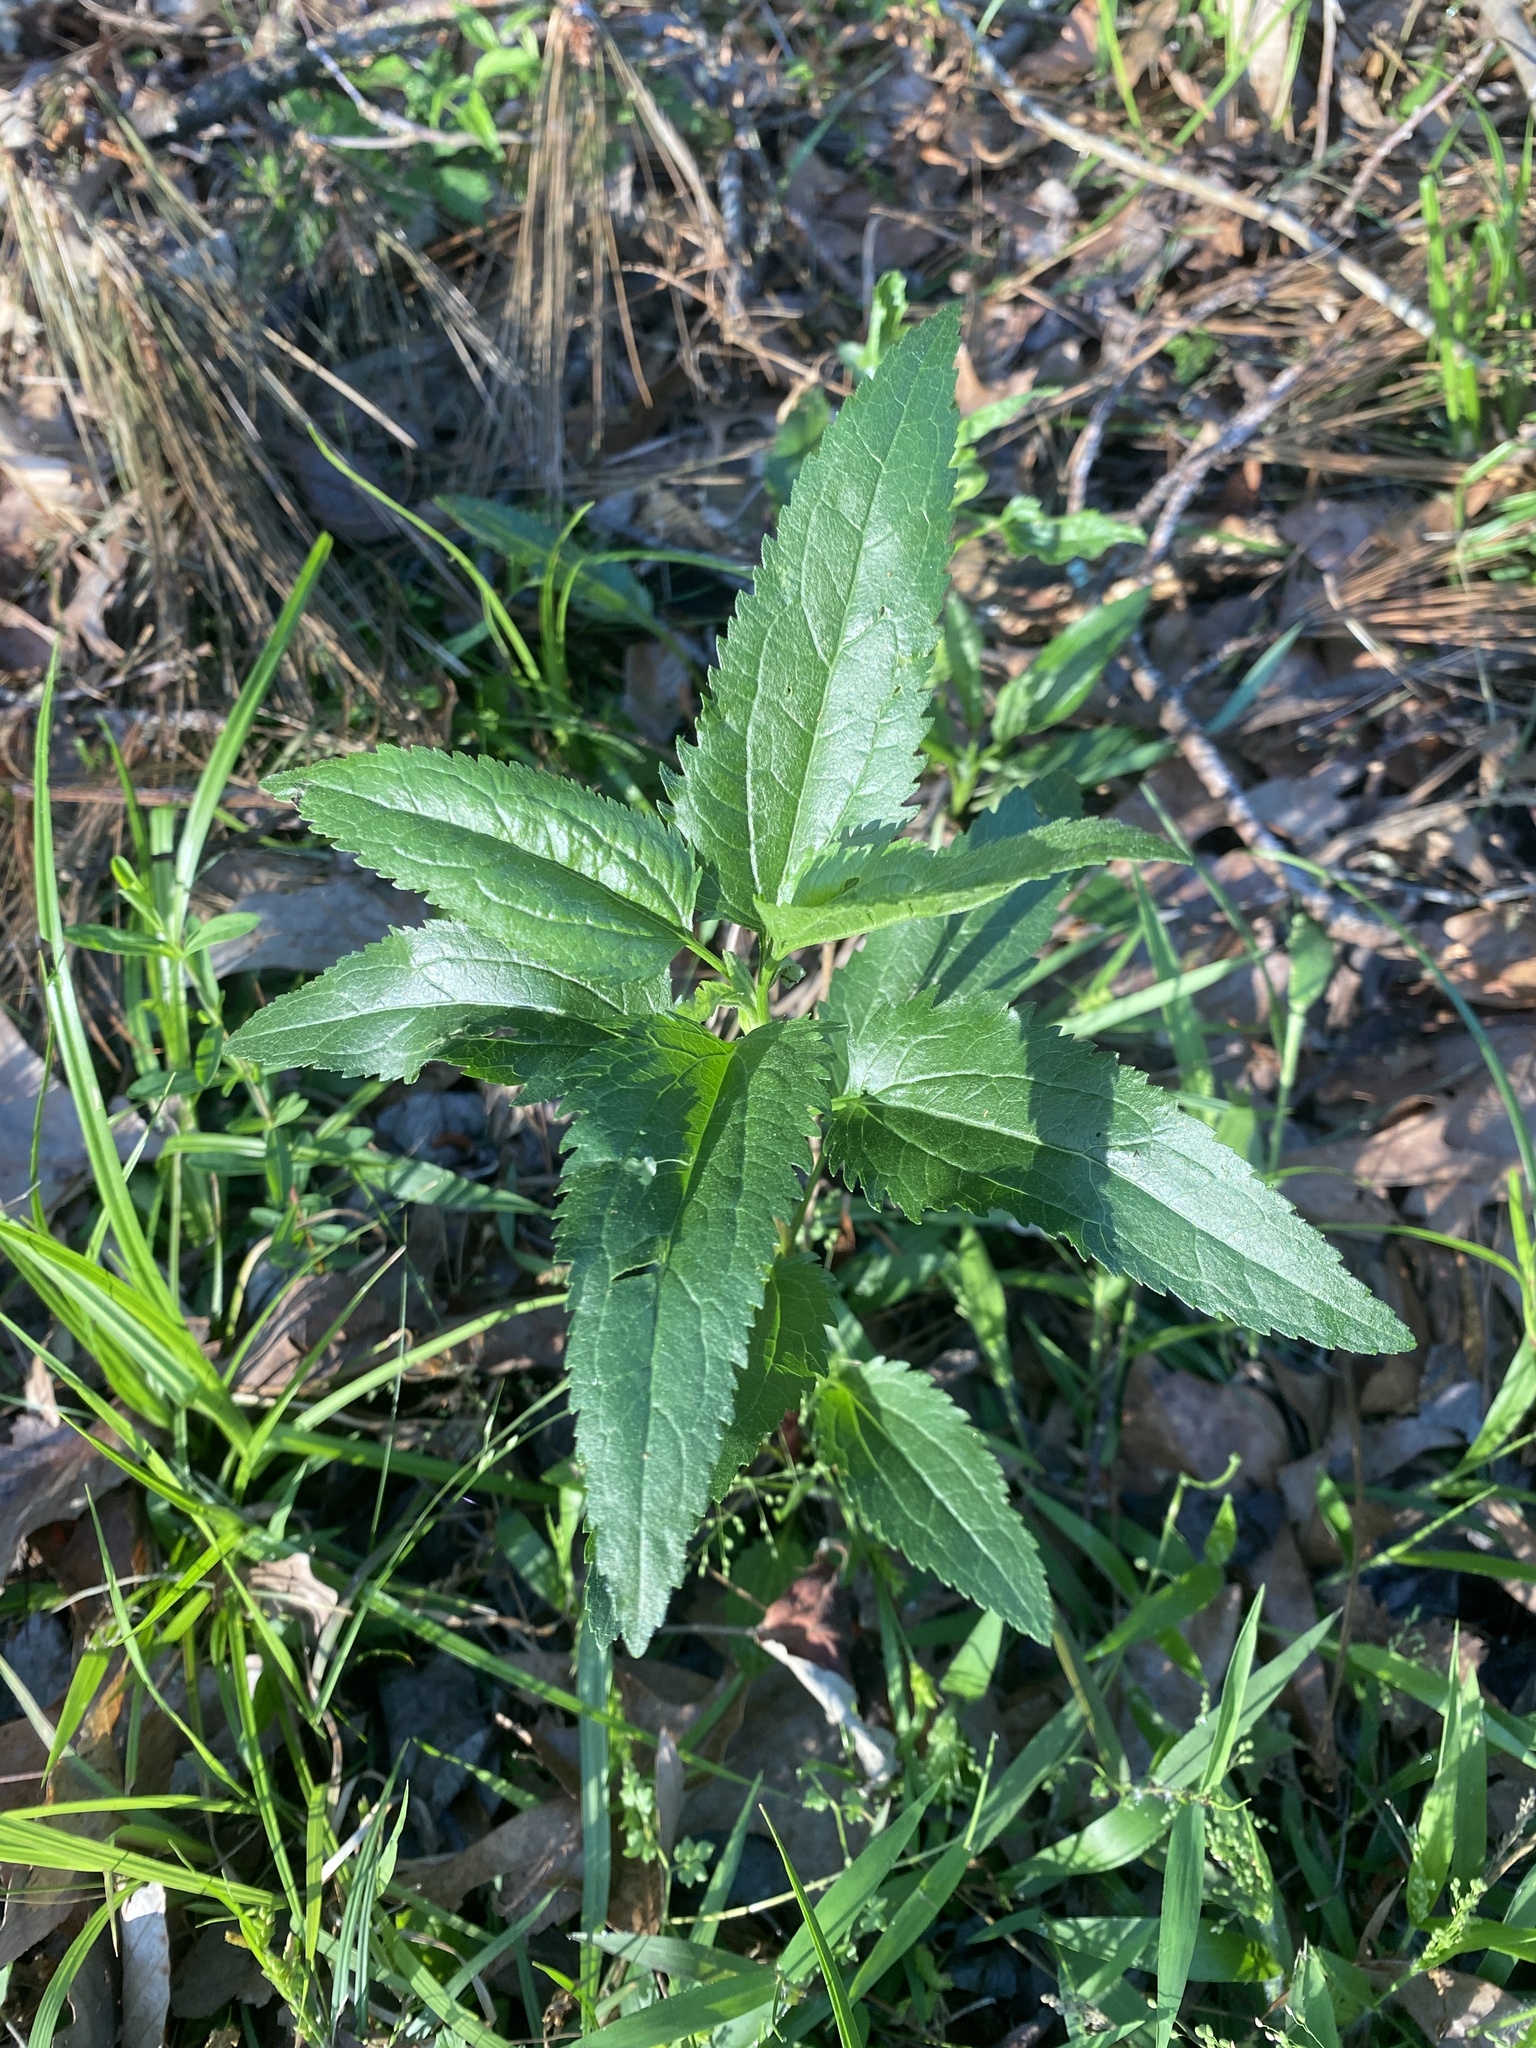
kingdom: Plantae
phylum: Tracheophyta
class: Magnoliopsida
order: Asterales
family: Asteraceae
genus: Eupatorium
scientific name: Eupatorium serotinum
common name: Late boneset
